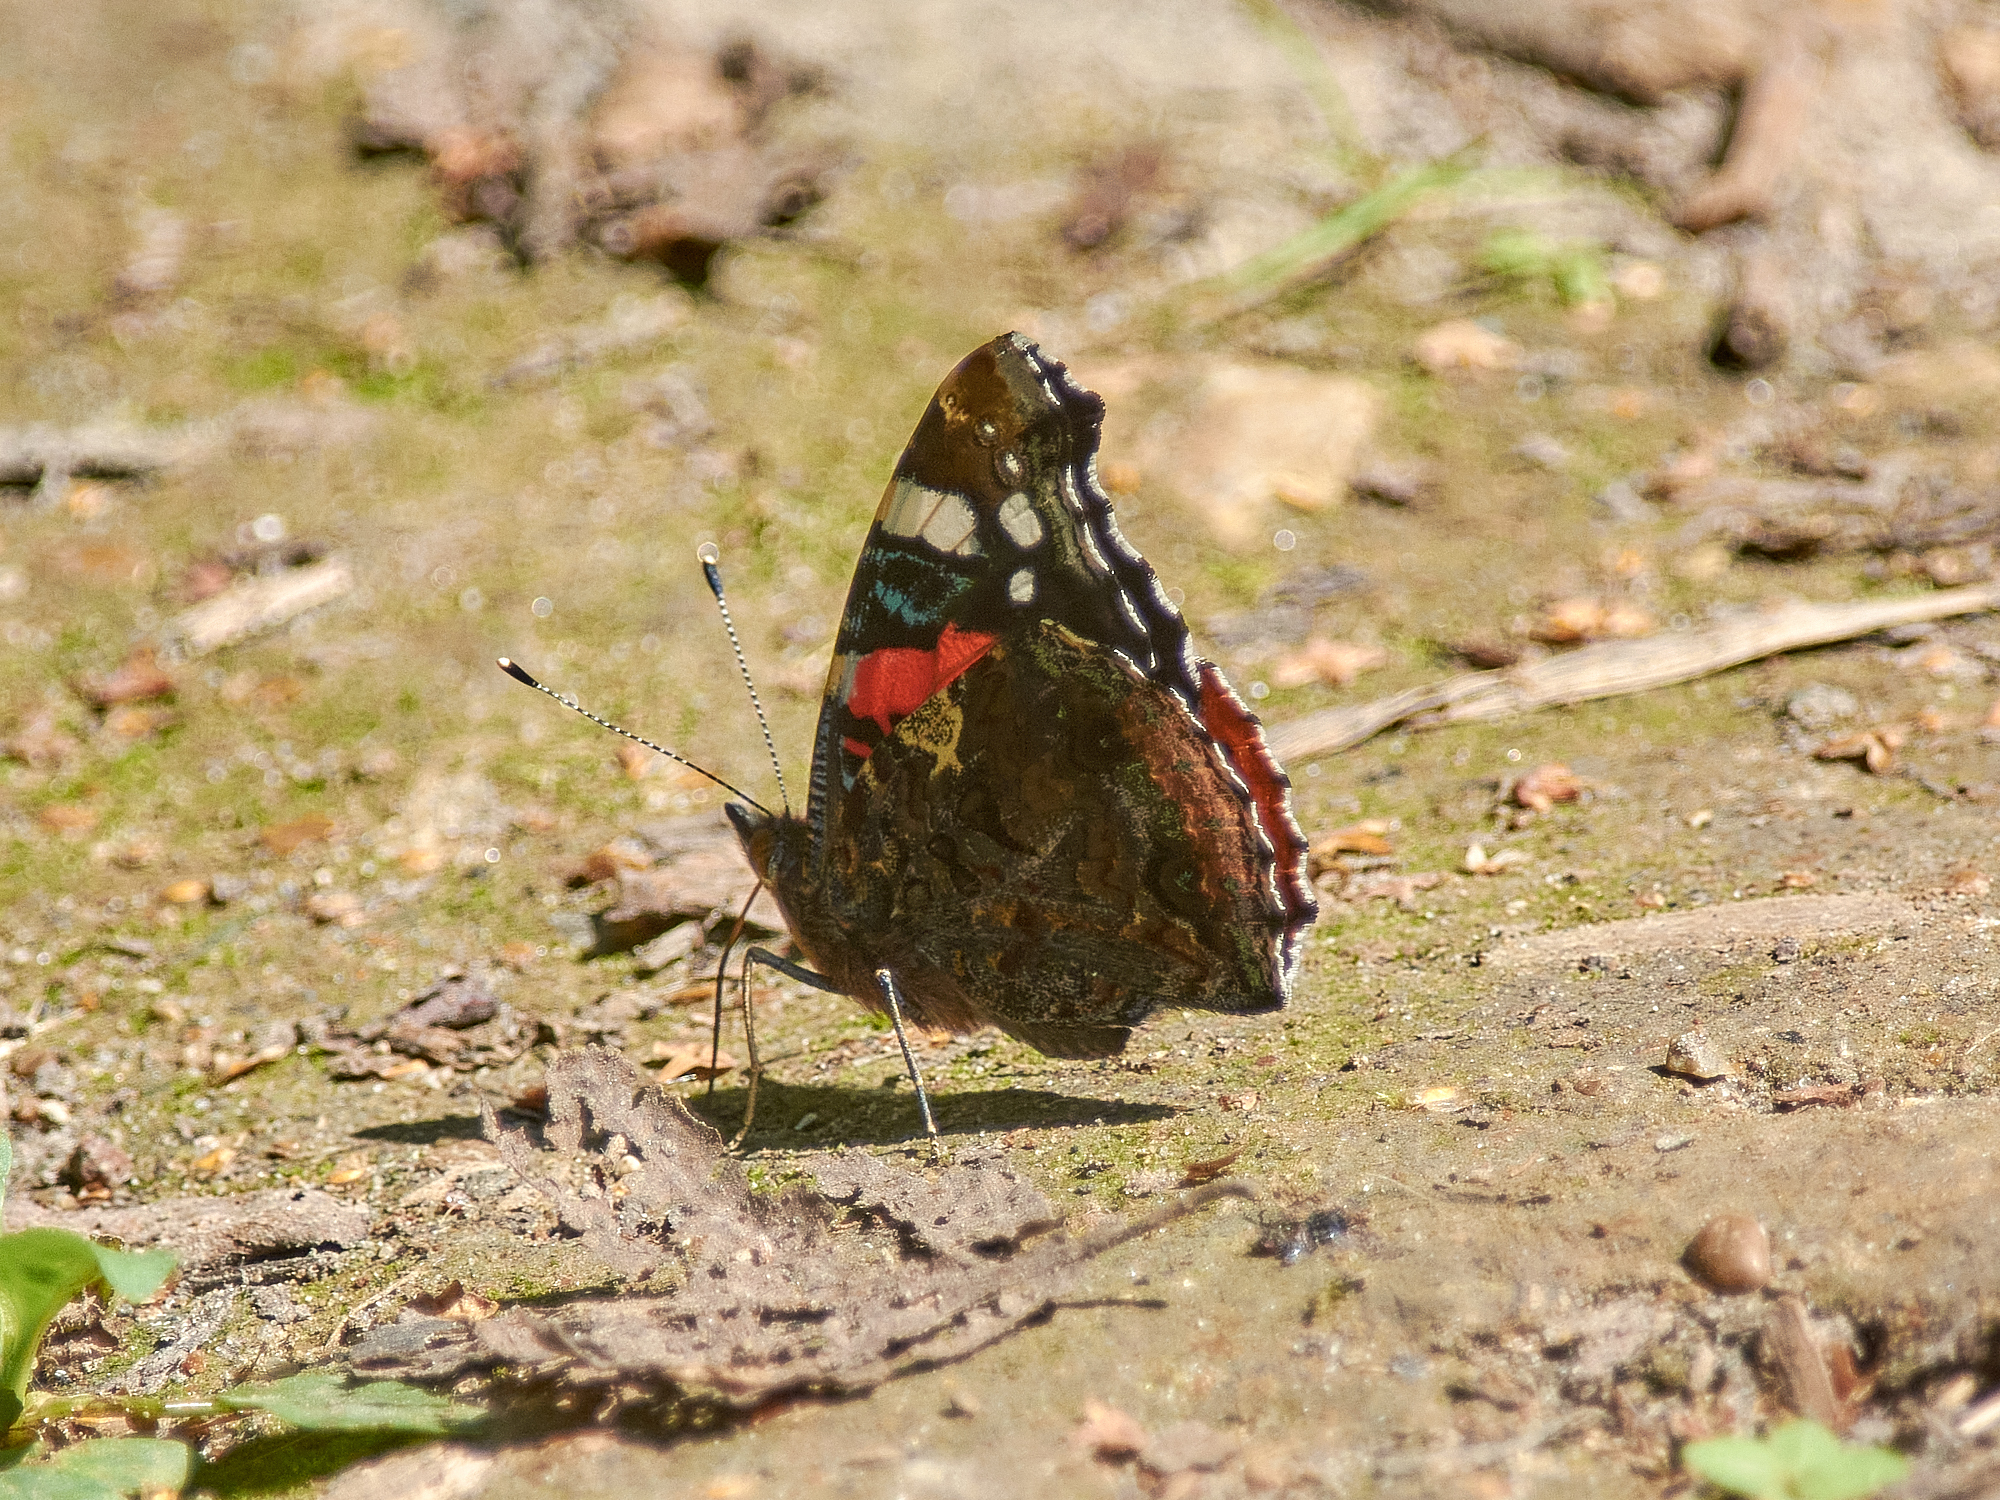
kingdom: Animalia
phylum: Arthropoda
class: Insecta
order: Lepidoptera
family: Nymphalidae
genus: Vanessa
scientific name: Vanessa atalanta
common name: Red admiral
